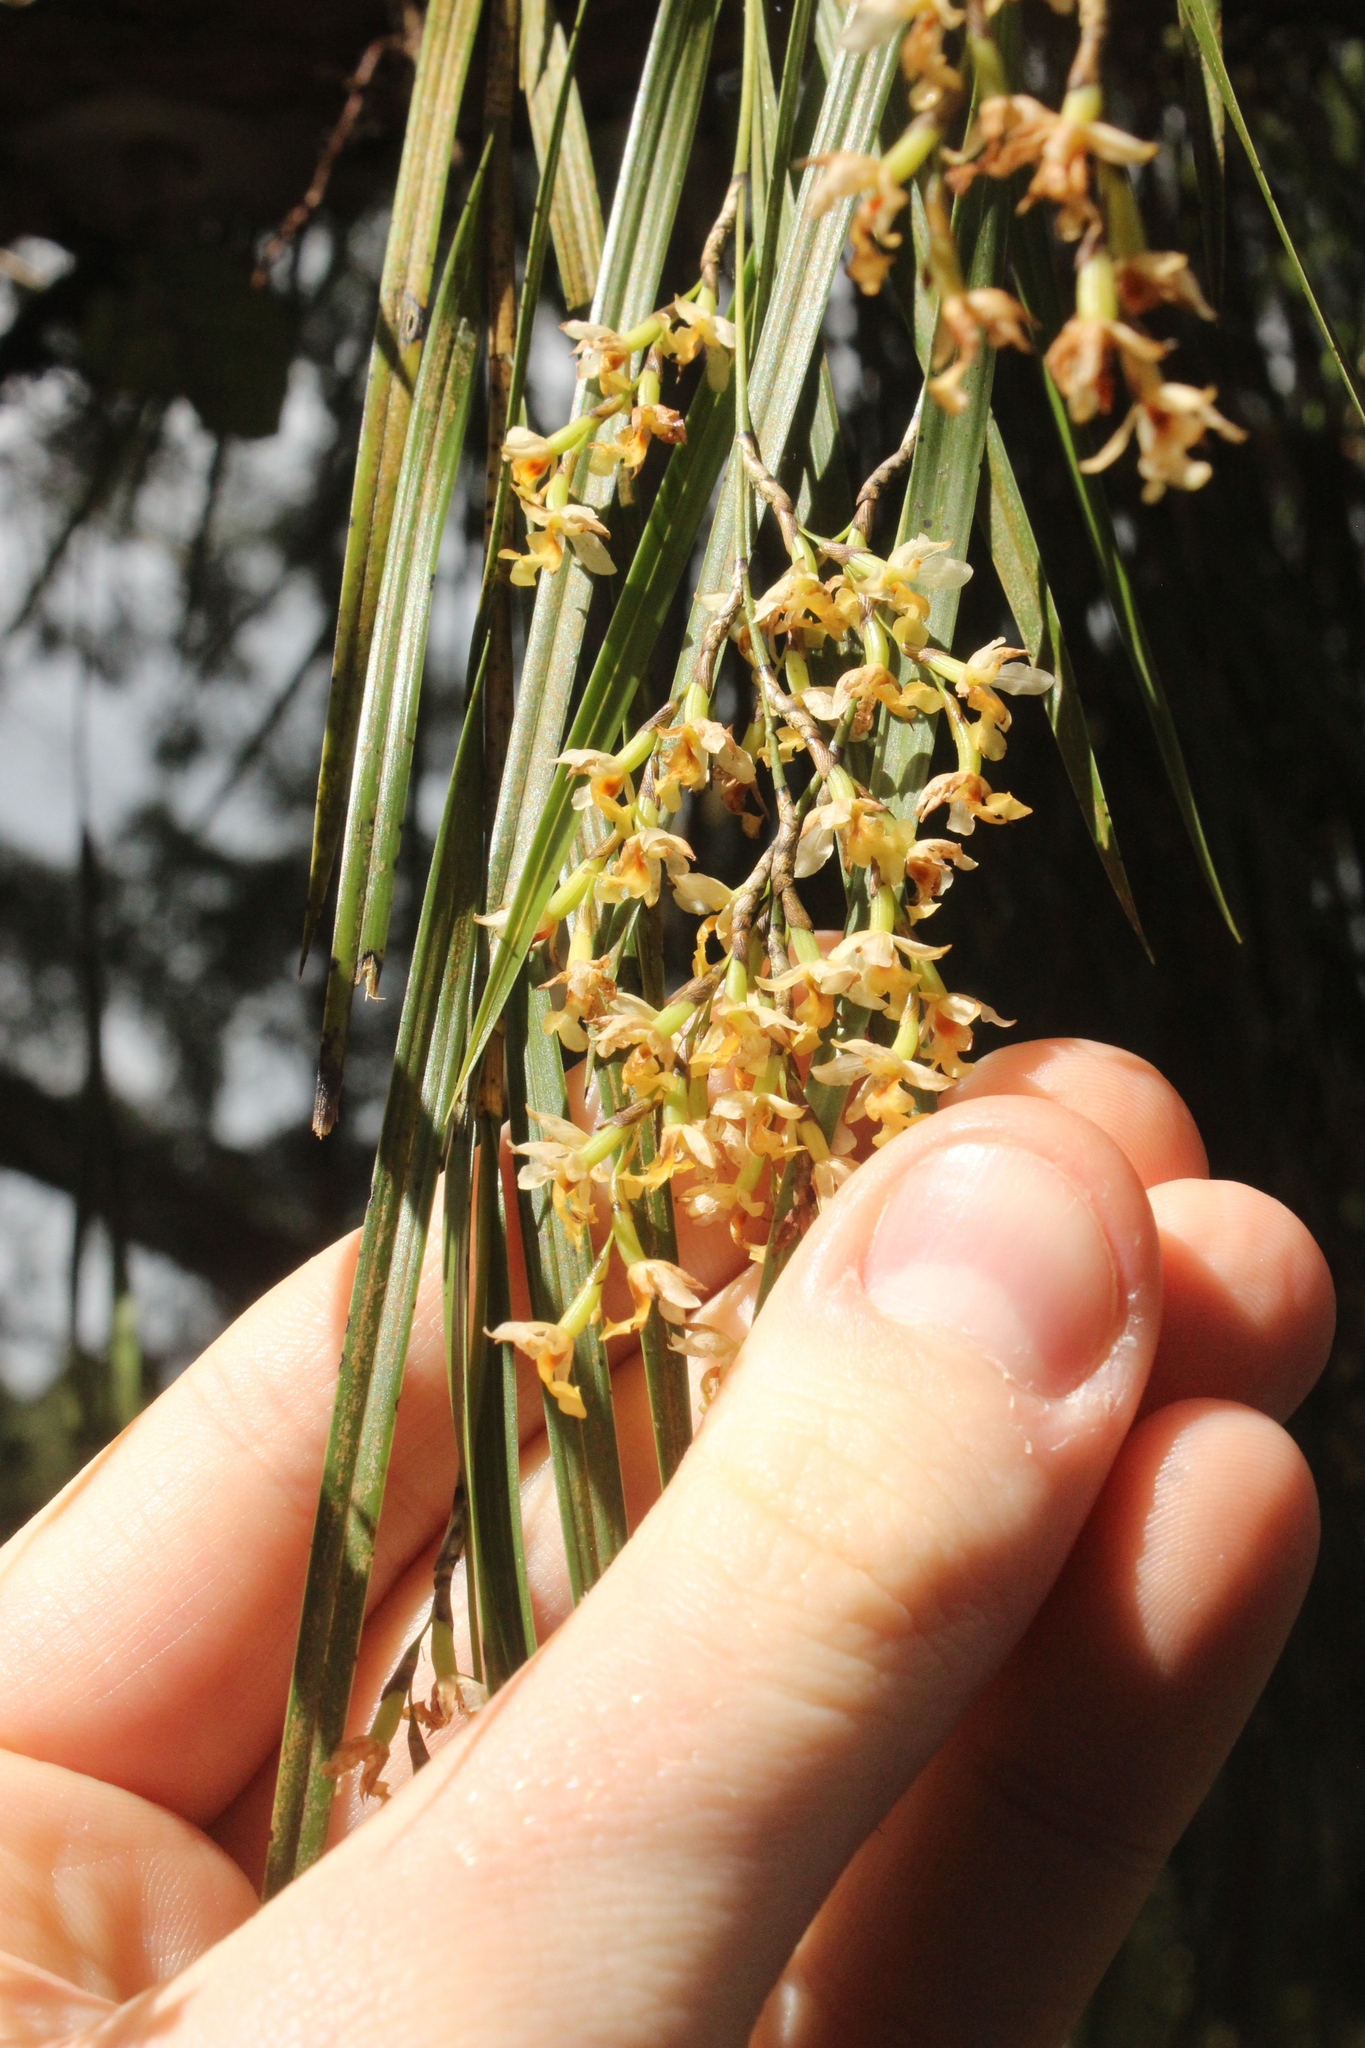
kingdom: Plantae
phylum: Tracheophyta
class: Liliopsida
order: Asparagales
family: Orchidaceae
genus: Earina
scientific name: Earina mucronata
